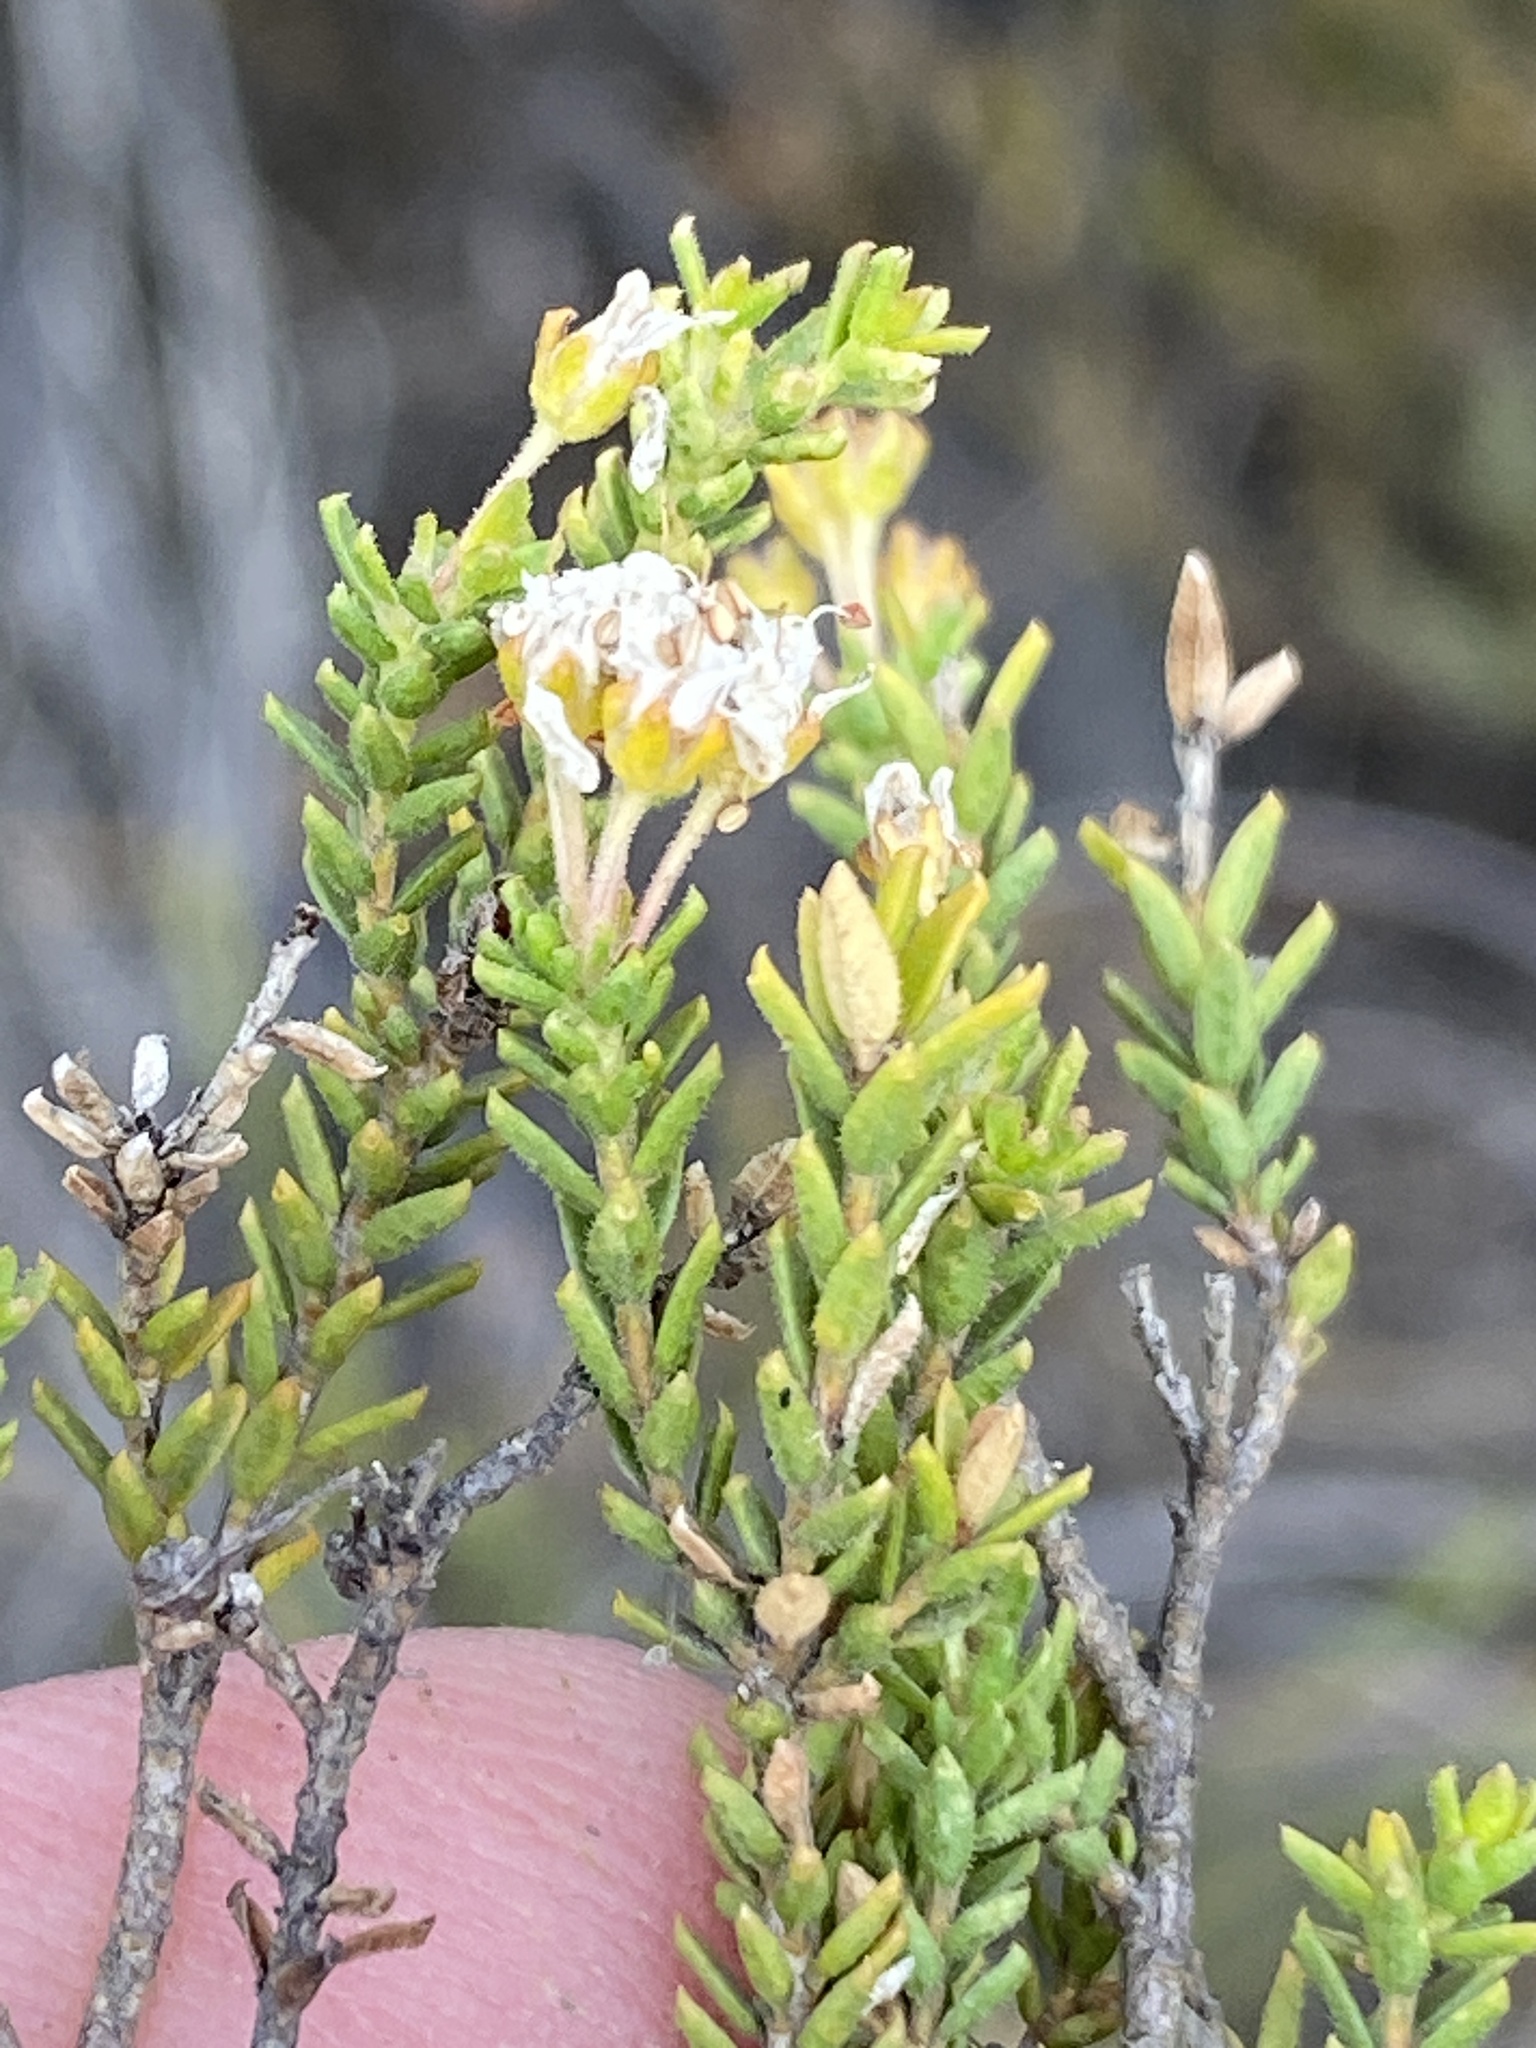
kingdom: Plantae
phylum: Tracheophyta
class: Magnoliopsida
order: Sapindales
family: Rutaceae
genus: Agathosma
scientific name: Agathosma crassifolia
